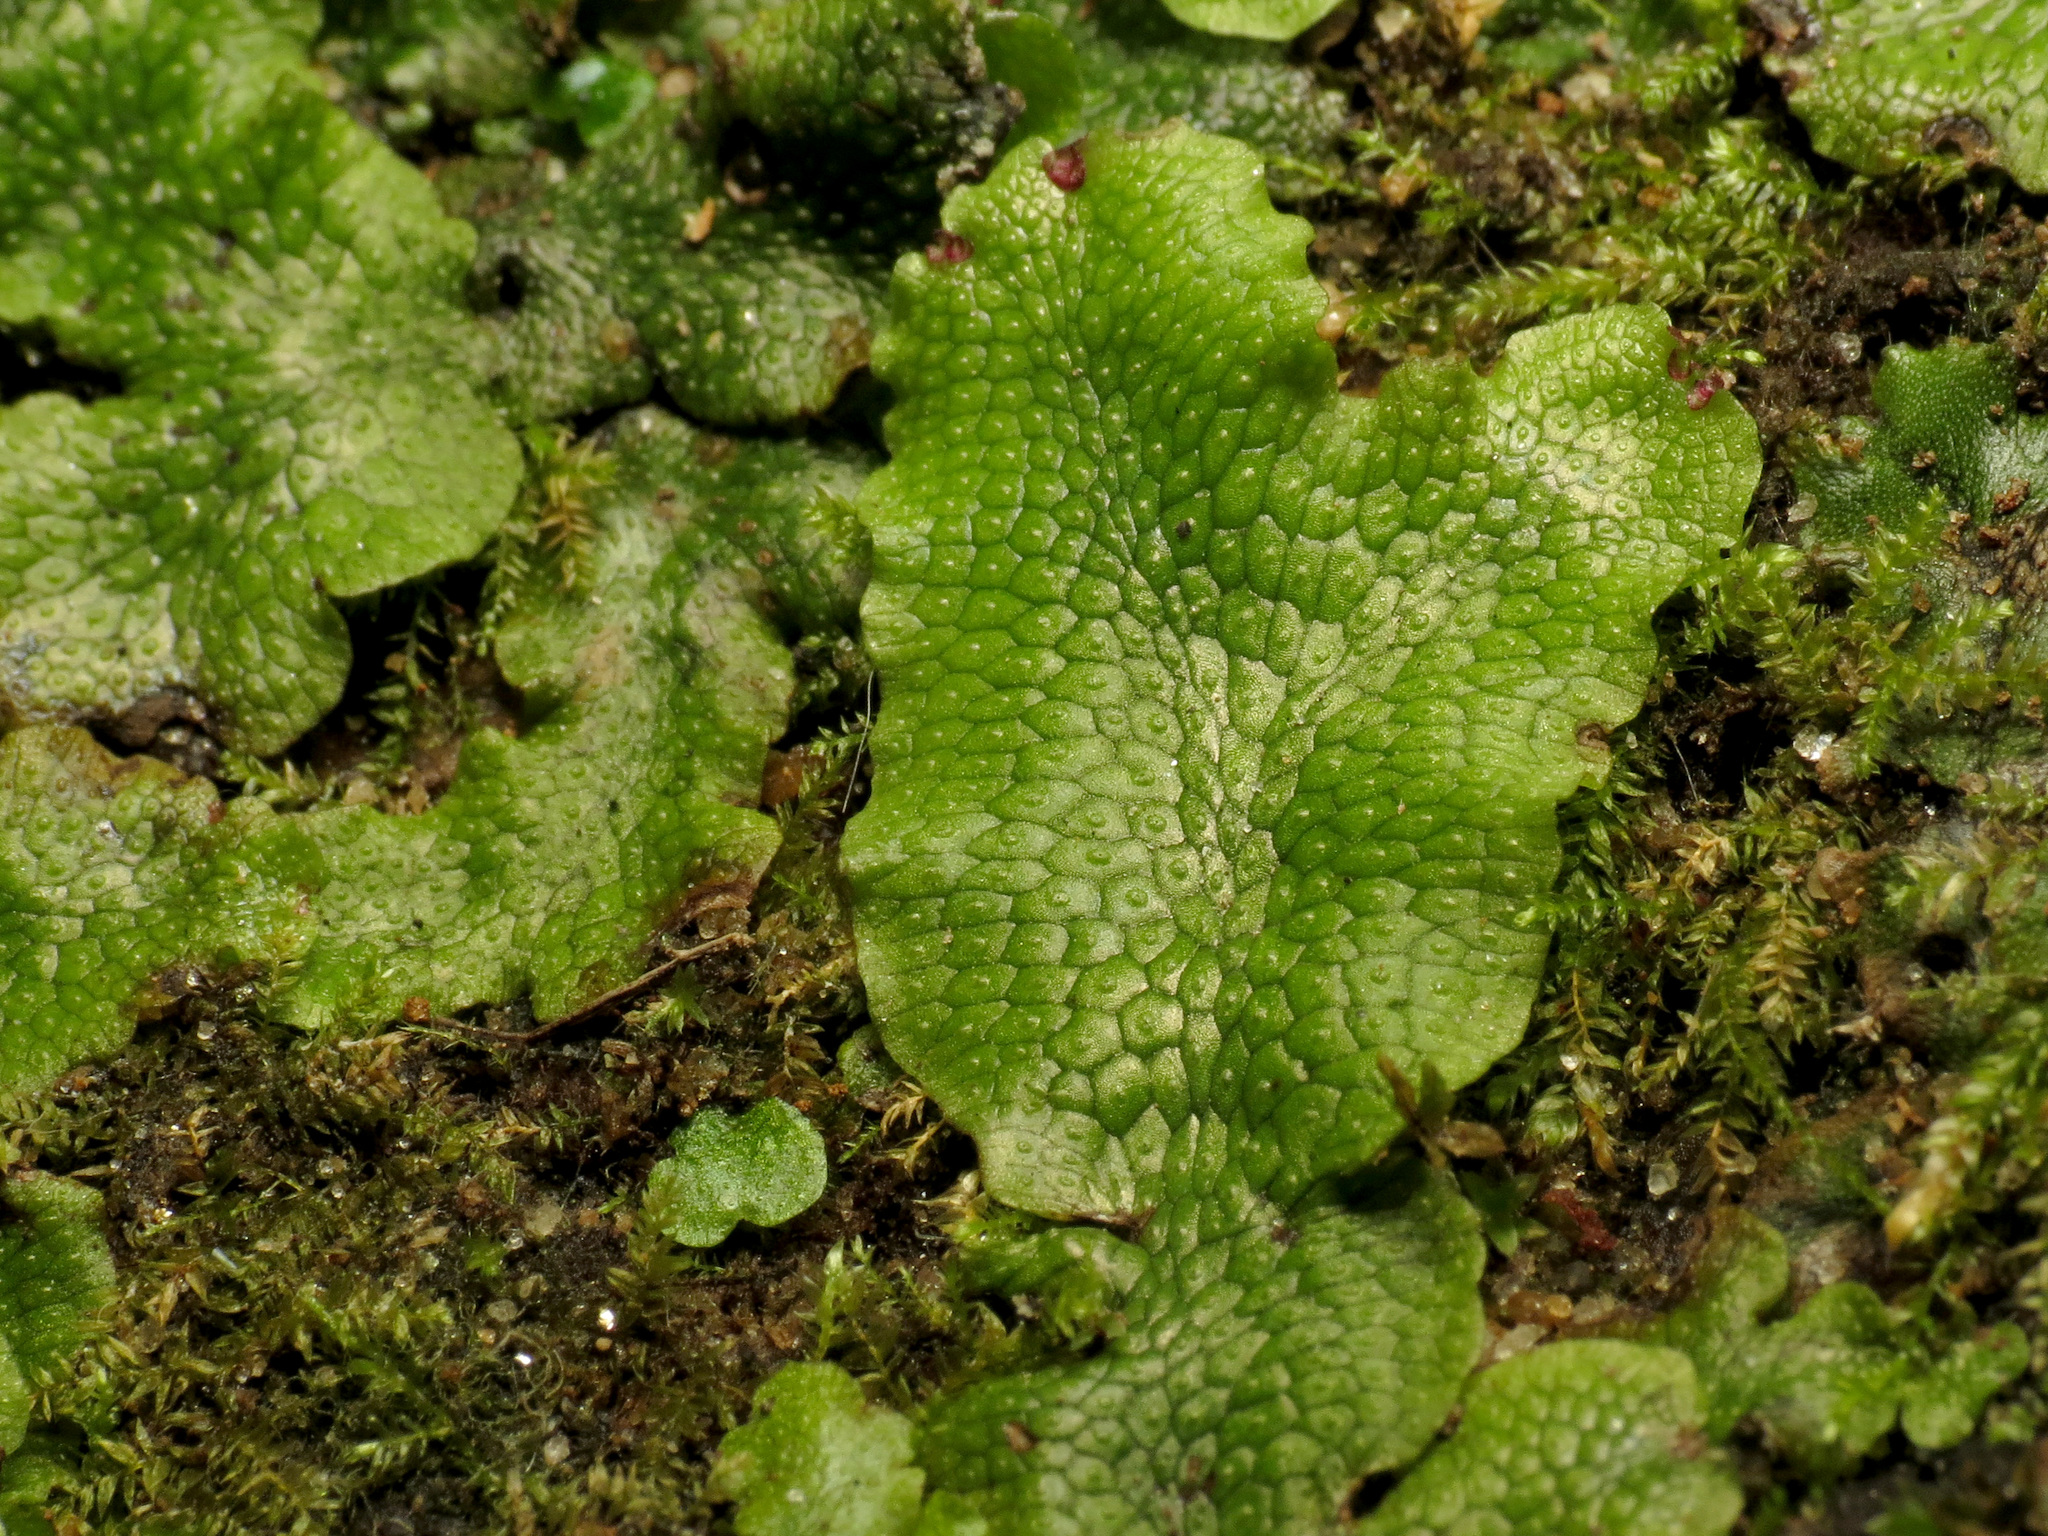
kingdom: Plantae
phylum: Marchantiophyta
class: Marchantiopsida
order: Marchantiales
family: Conocephalaceae
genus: Conocephalum
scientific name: Conocephalum salebrosum
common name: Cat-tongue liverwort
